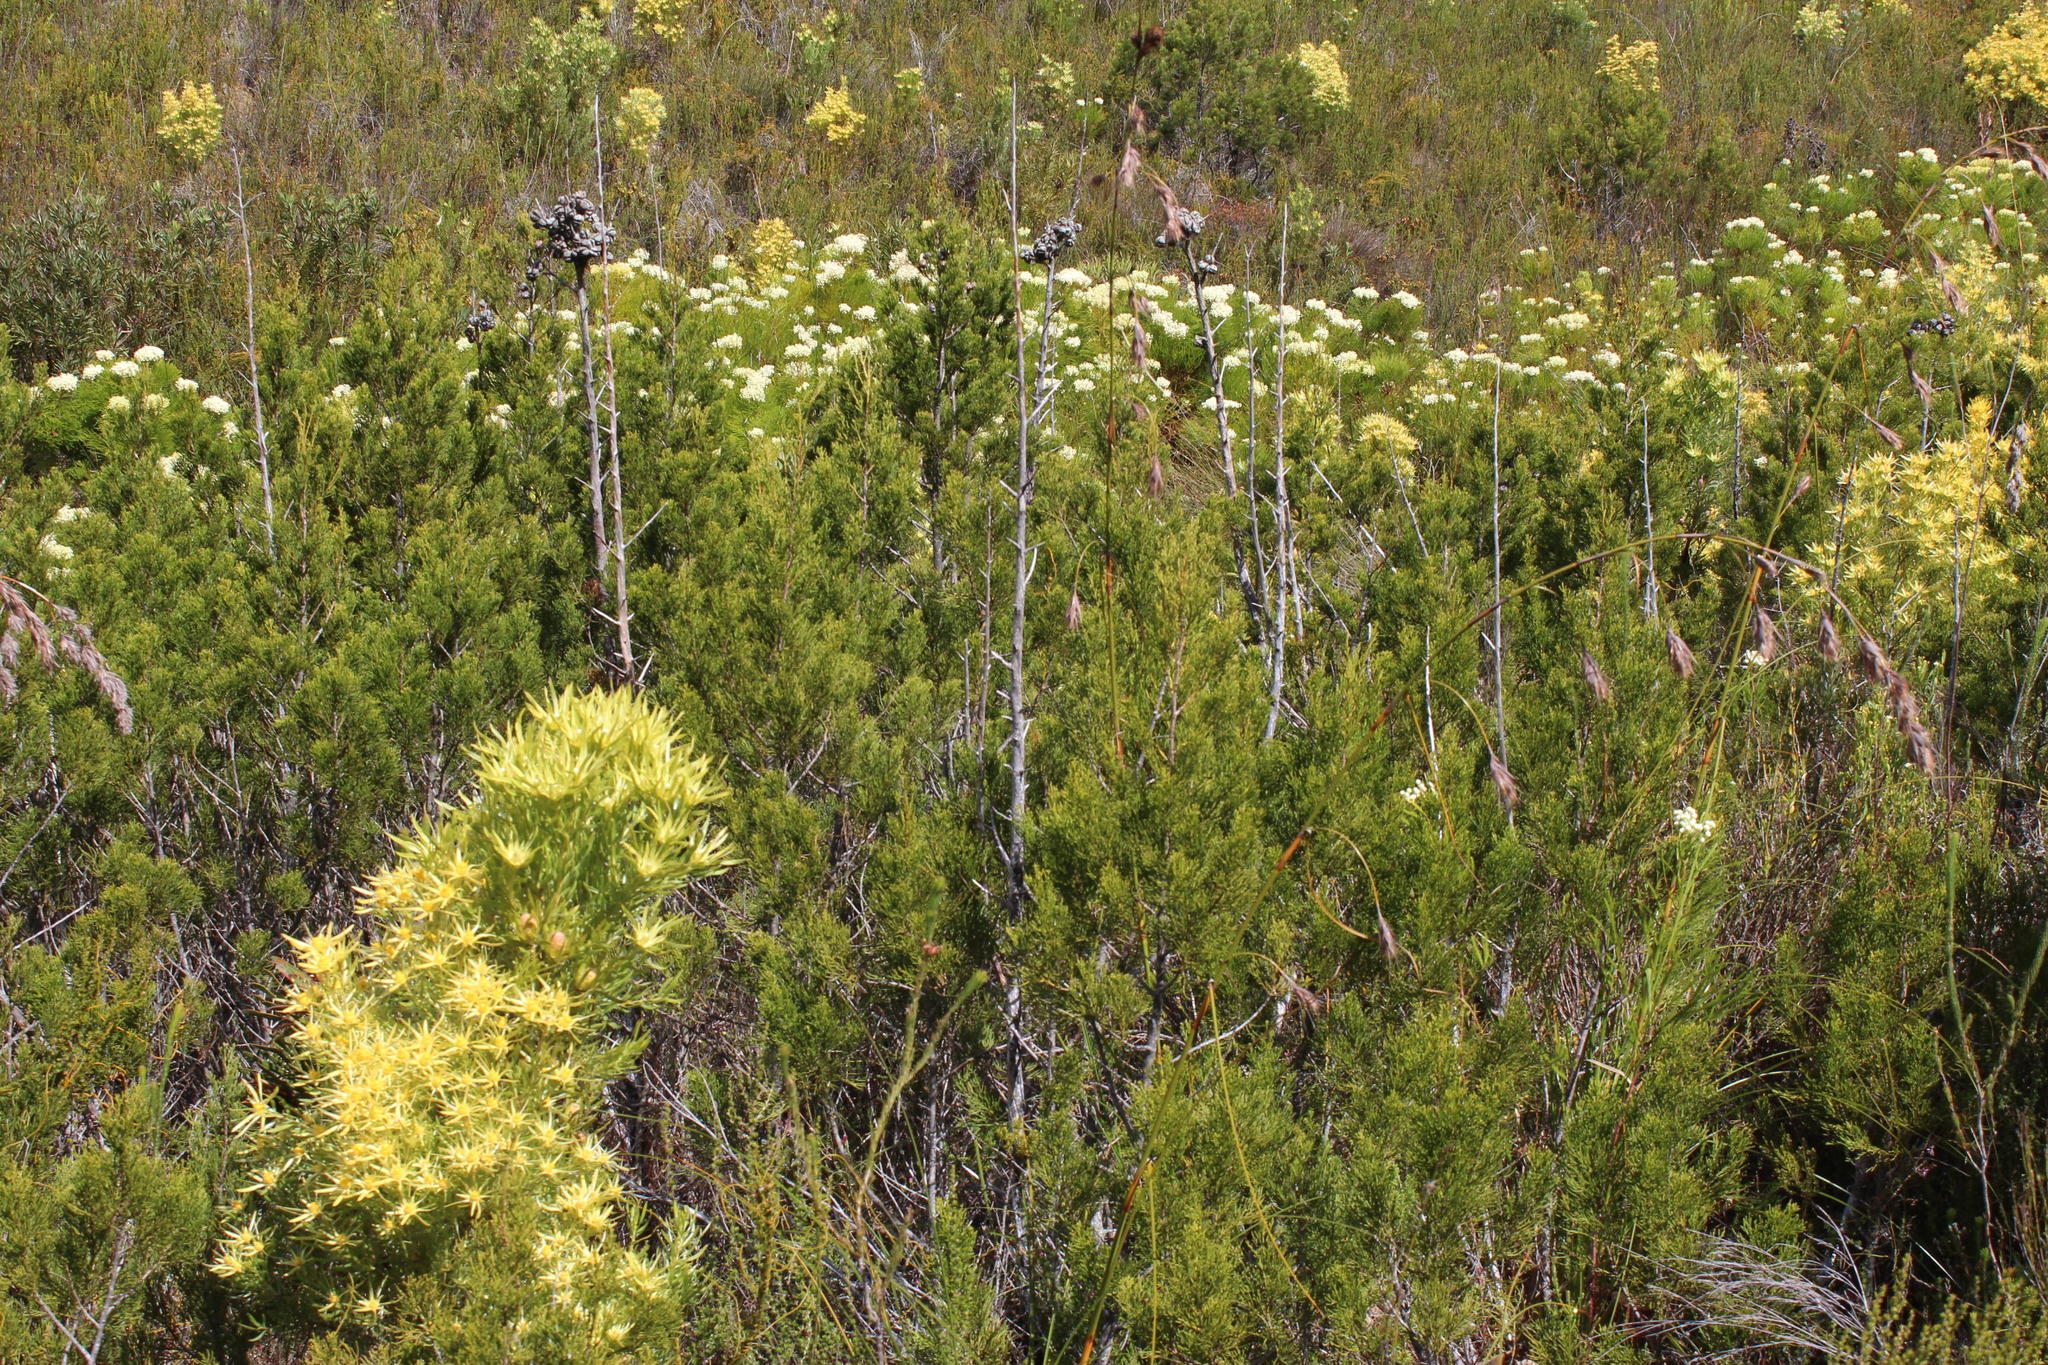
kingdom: Plantae
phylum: Tracheophyta
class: Pinopsida
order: Pinales
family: Cupressaceae
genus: Widdringtonia
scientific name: Widdringtonia nodiflora
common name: Cape cypress
